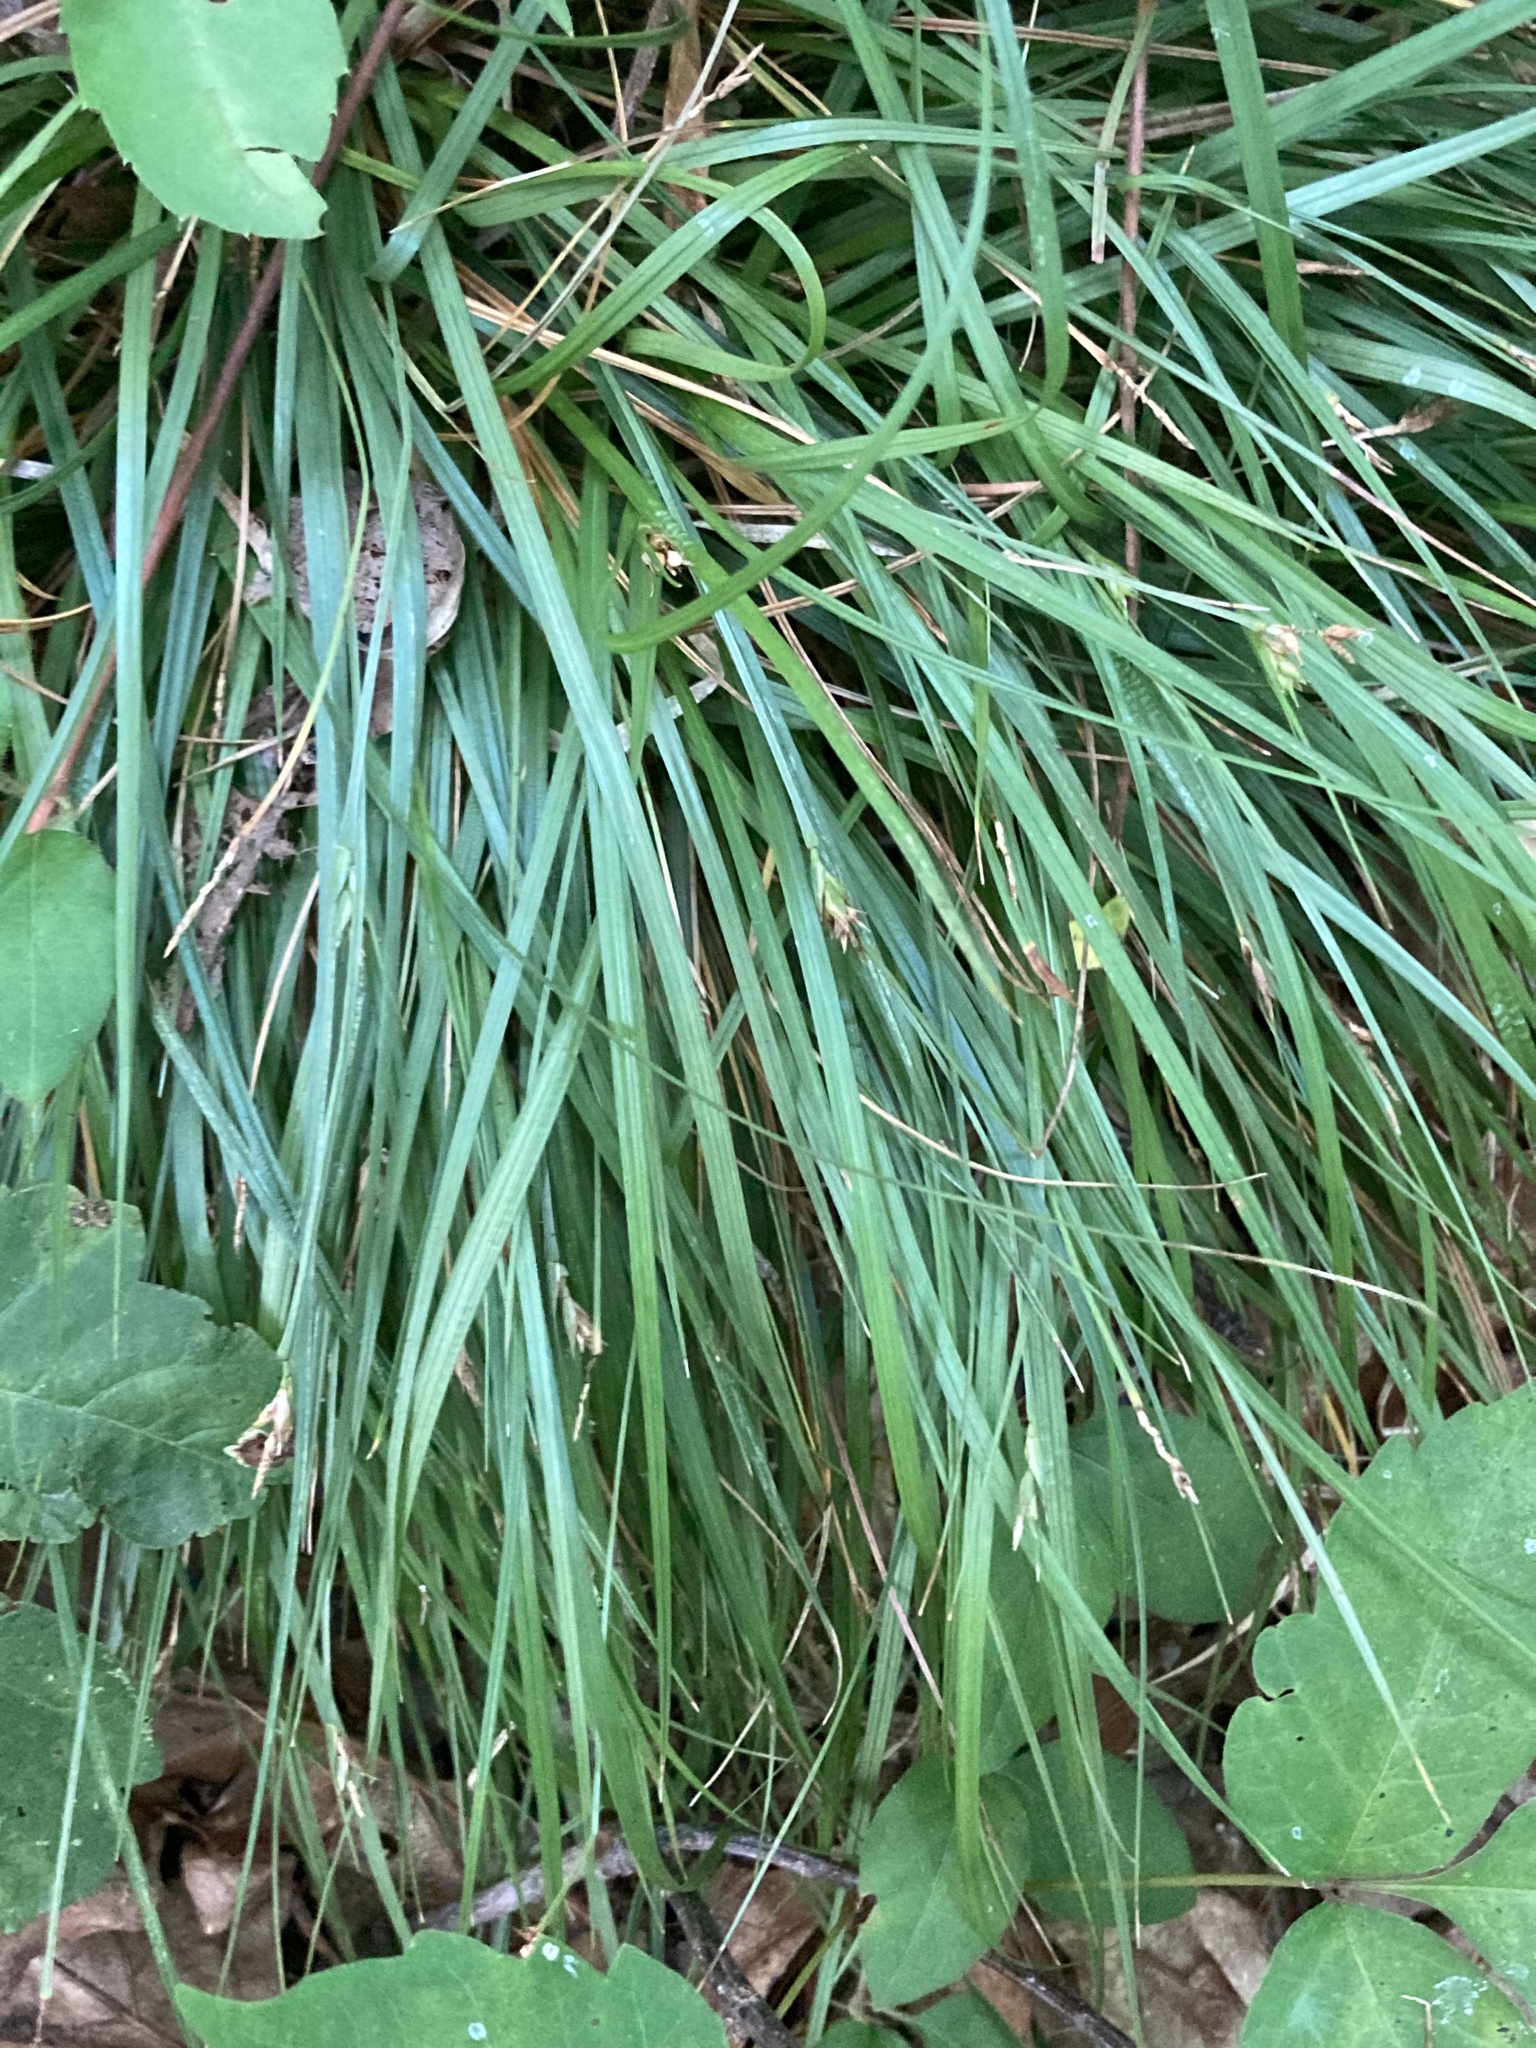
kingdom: Plantae
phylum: Tracheophyta
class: Liliopsida
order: Poales
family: Cyperaceae
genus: Carex
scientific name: Carex willdenowii
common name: Willdenow's sedge
